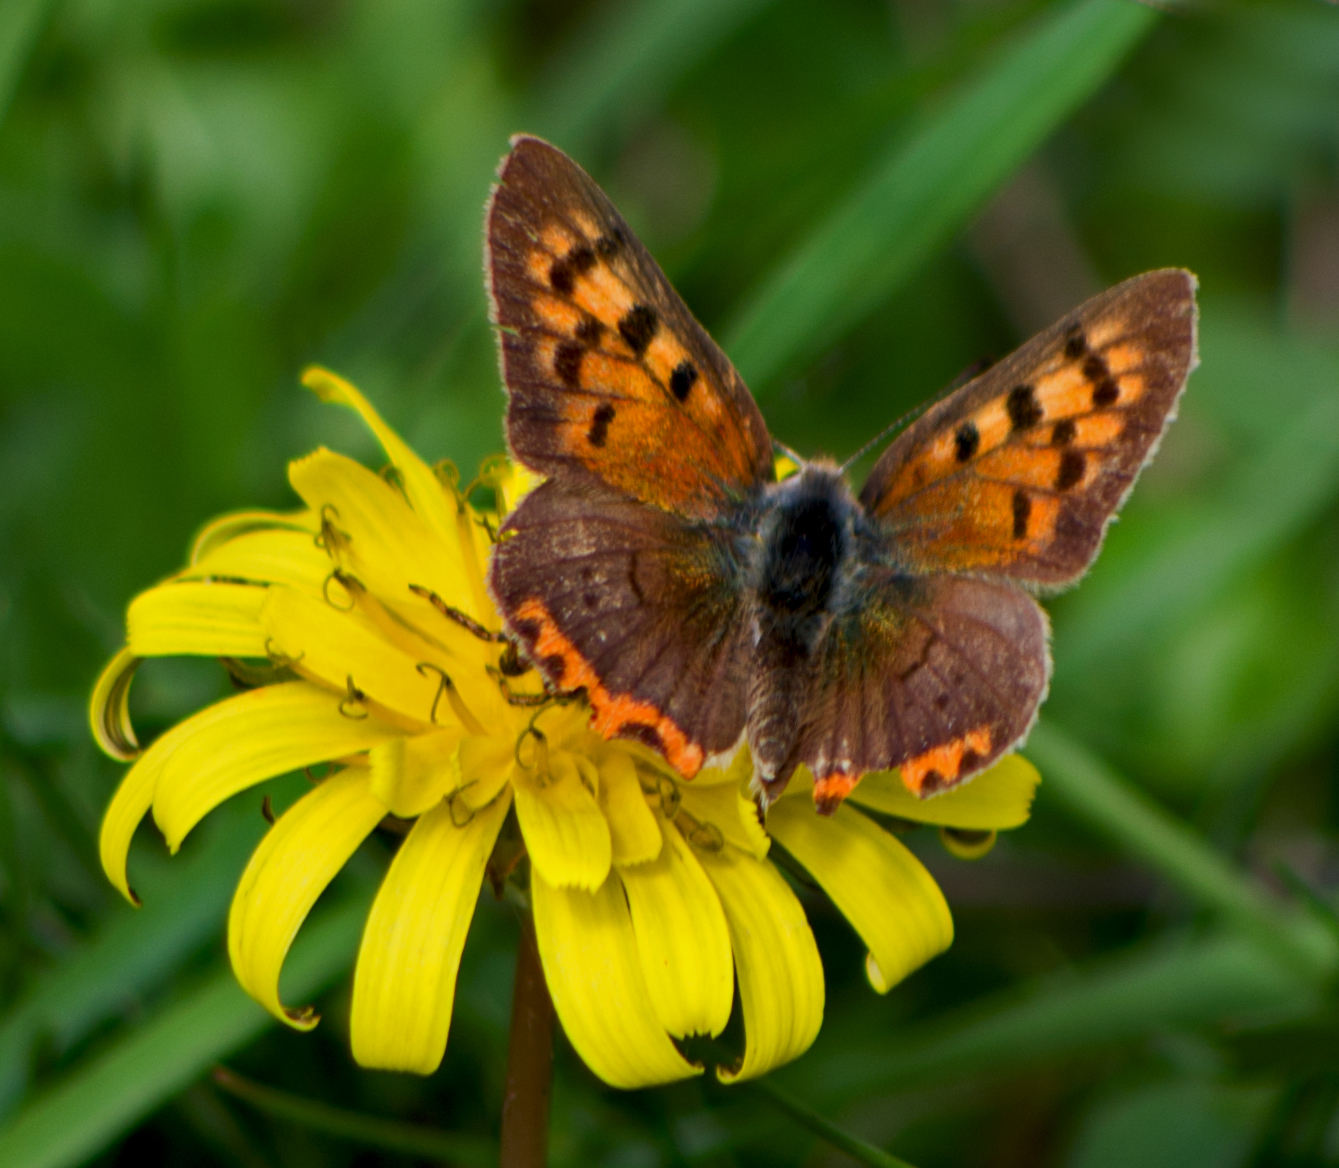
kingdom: Animalia
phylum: Arthropoda
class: Insecta
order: Lepidoptera
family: Lycaenidae
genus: Lycaena
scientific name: Lycaena phlaeas
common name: Small copper
